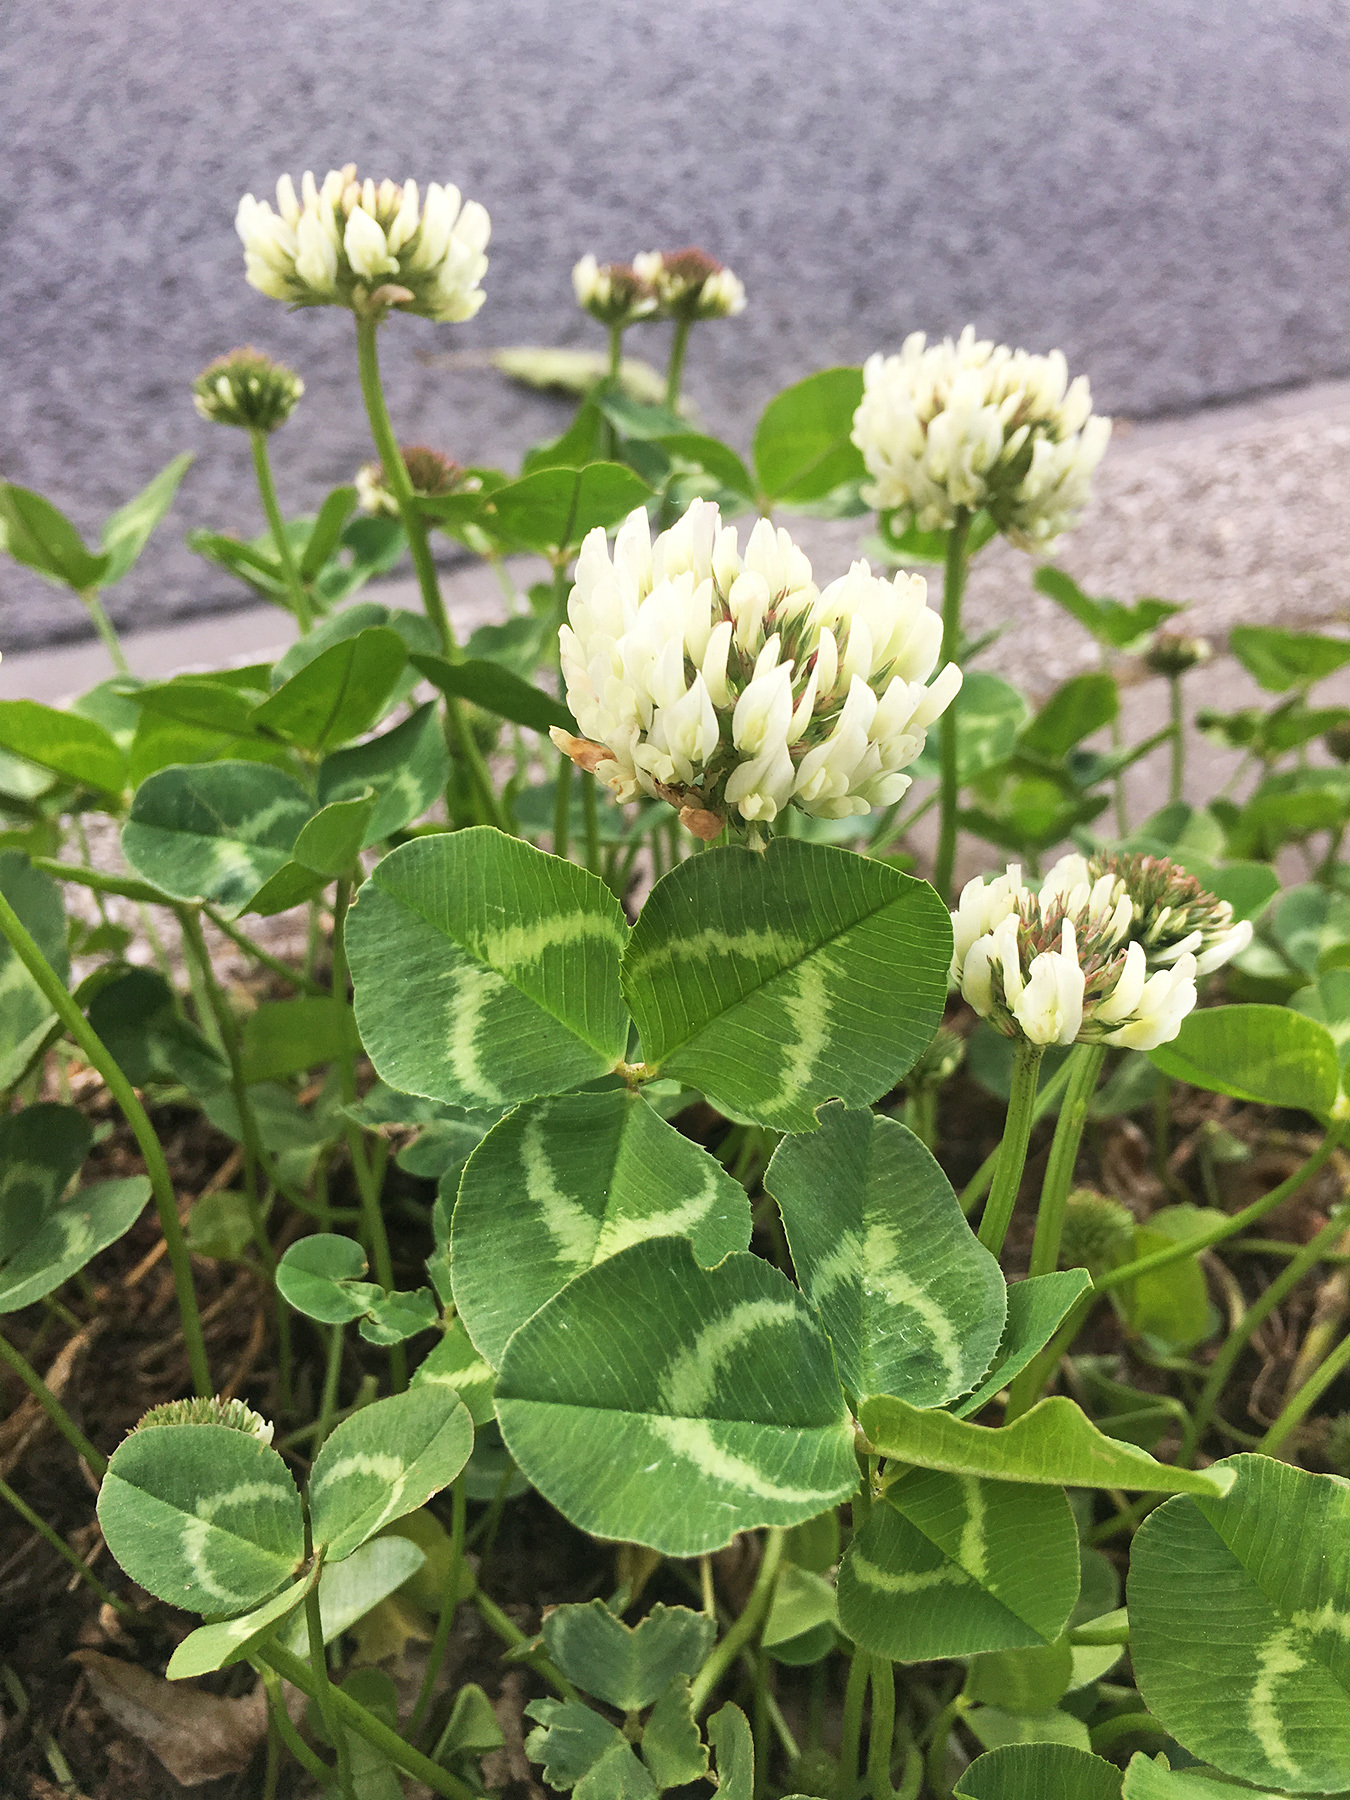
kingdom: Plantae
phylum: Tracheophyta
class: Magnoliopsida
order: Fabales
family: Fabaceae
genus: Trifolium
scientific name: Trifolium repens
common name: White clover
